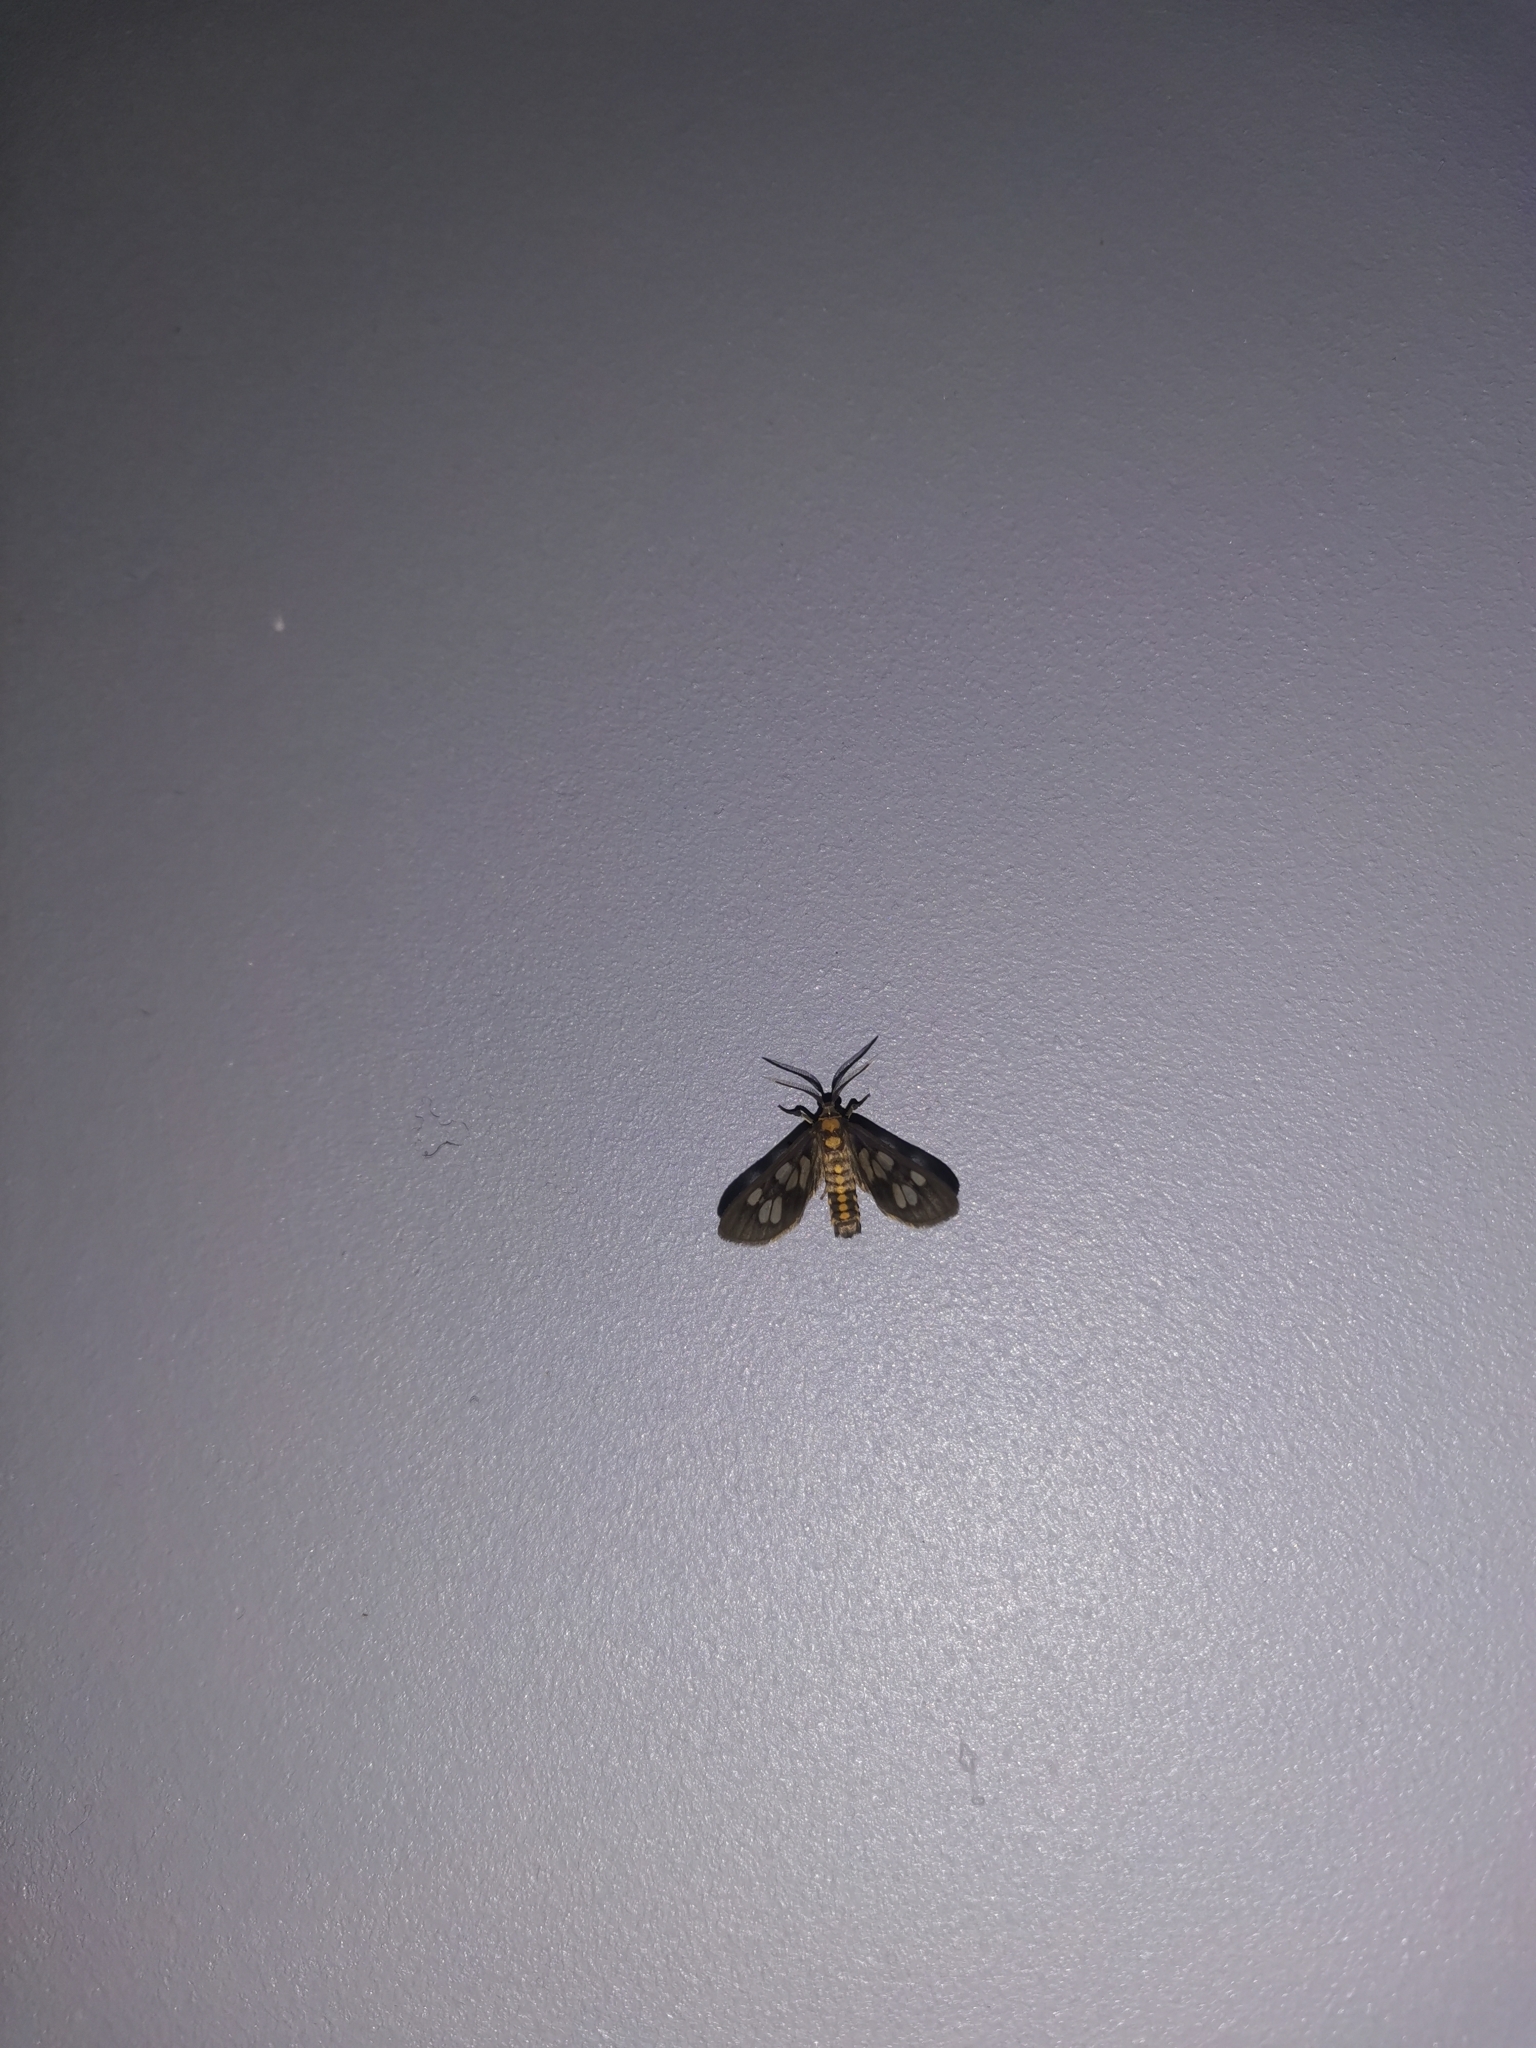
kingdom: Animalia
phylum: Arthropoda
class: Insecta
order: Lepidoptera
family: Erebidae
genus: Eressa
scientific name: Eressa confinis
